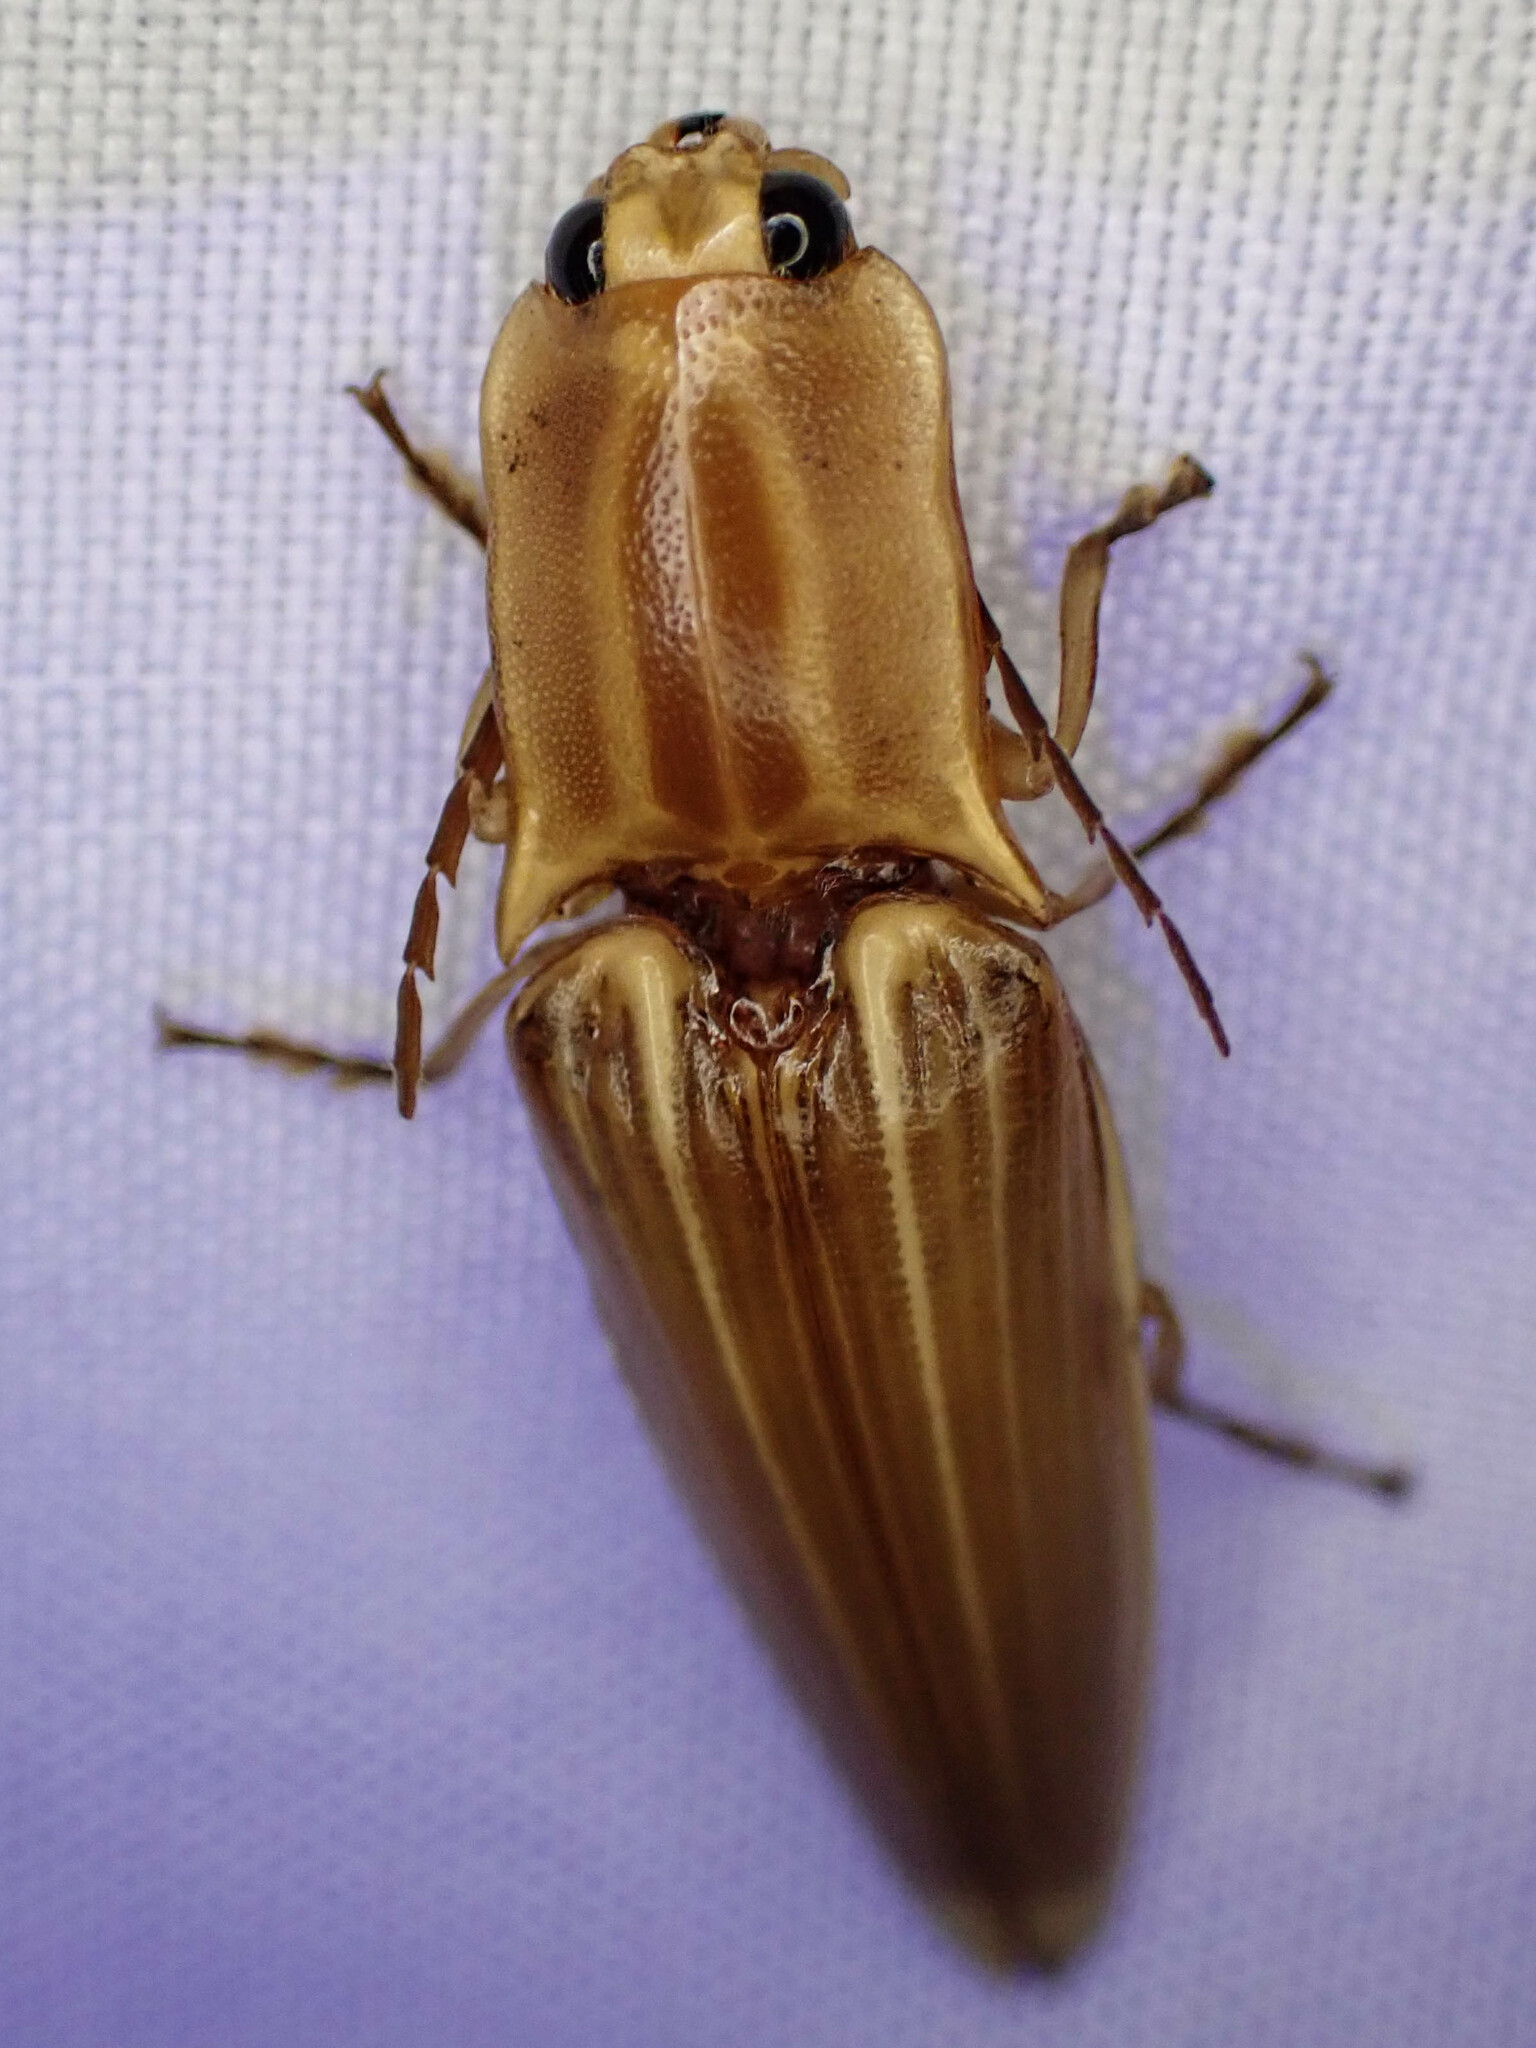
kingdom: Animalia
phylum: Arthropoda
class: Insecta
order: Coleoptera
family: Elateridae
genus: Semiotus
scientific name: Semiotus ligneus
